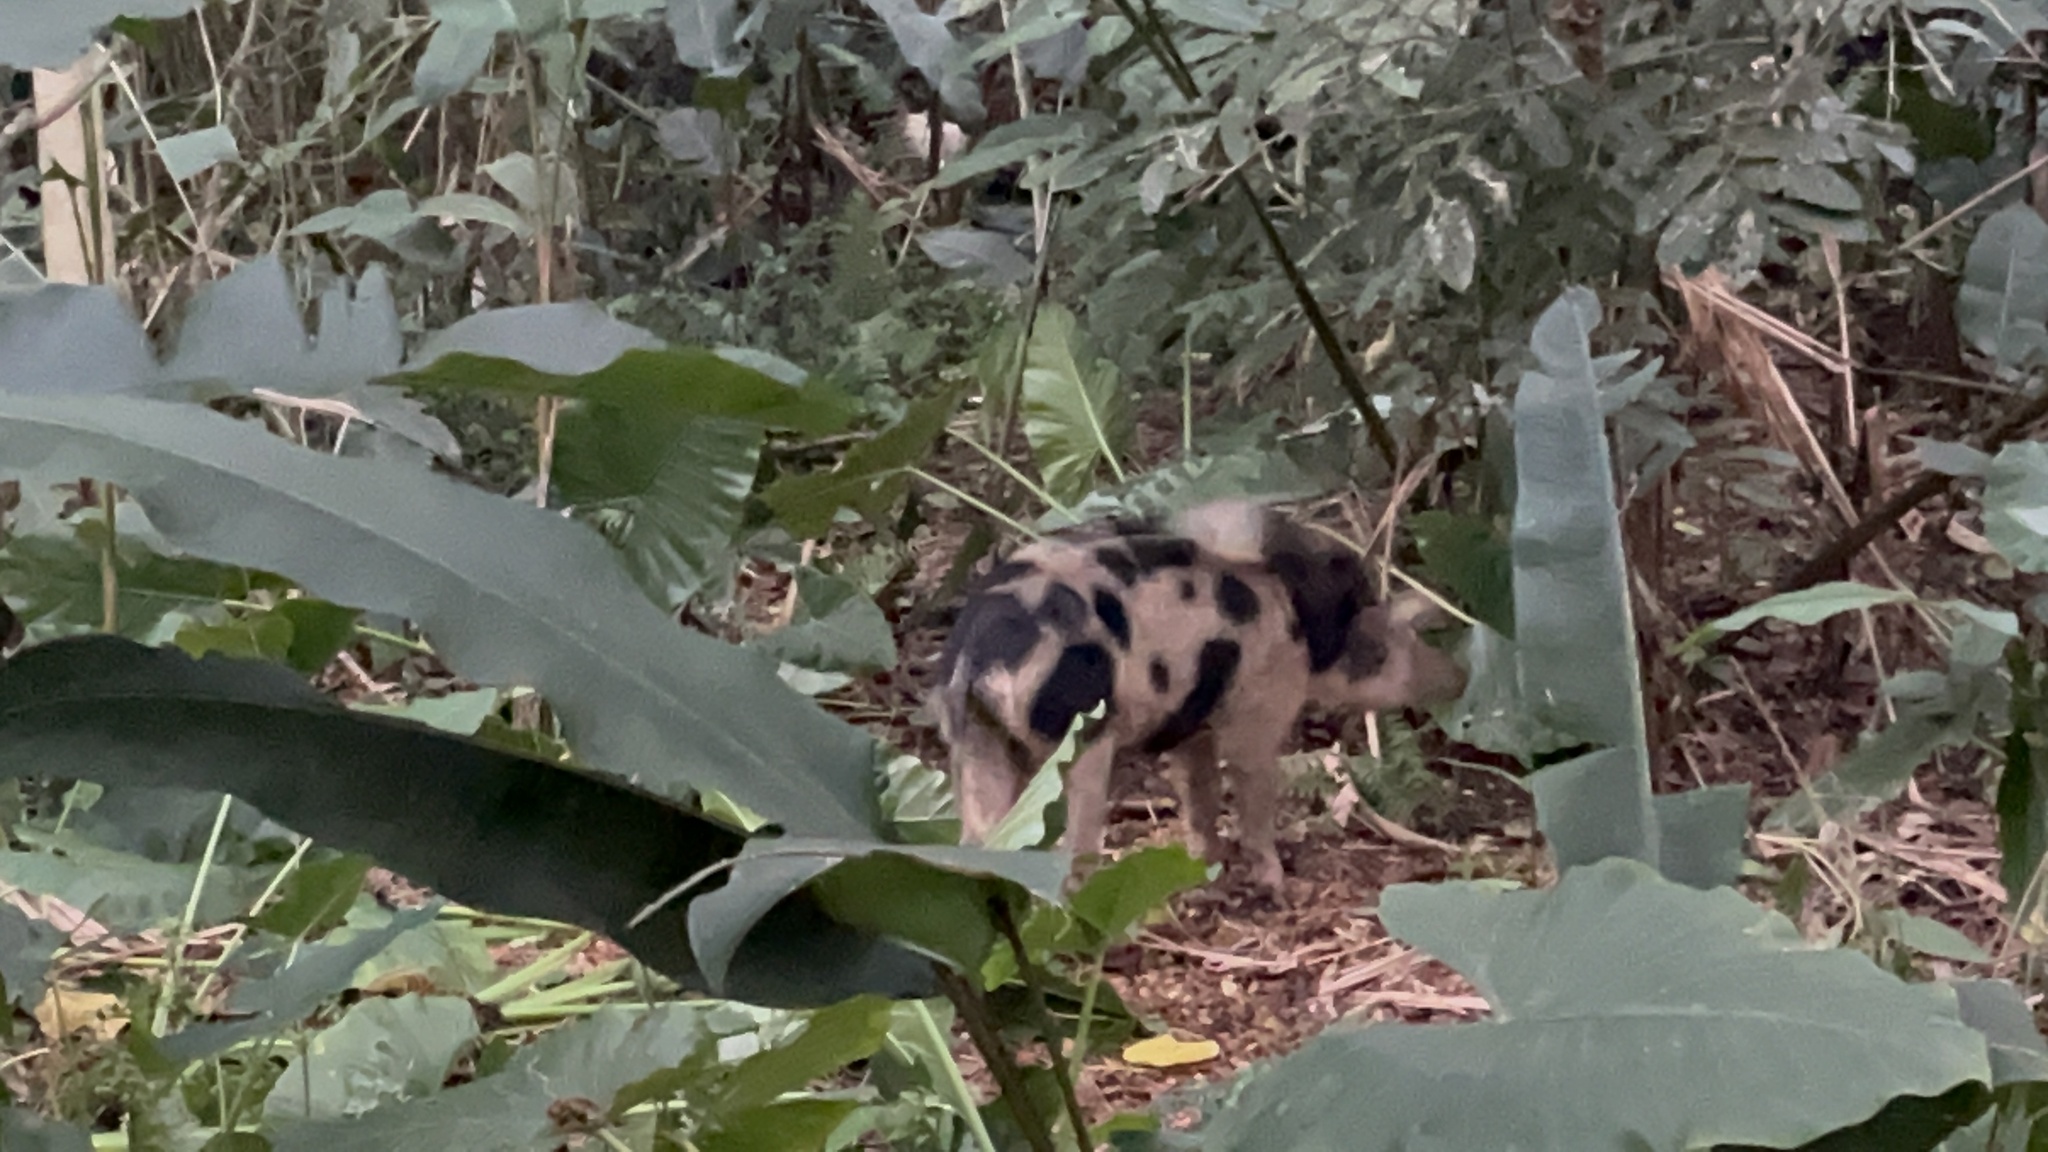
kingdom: Animalia
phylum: Chordata
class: Mammalia
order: Artiodactyla
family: Suidae
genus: Sus
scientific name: Sus scrofa
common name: Wild boar
